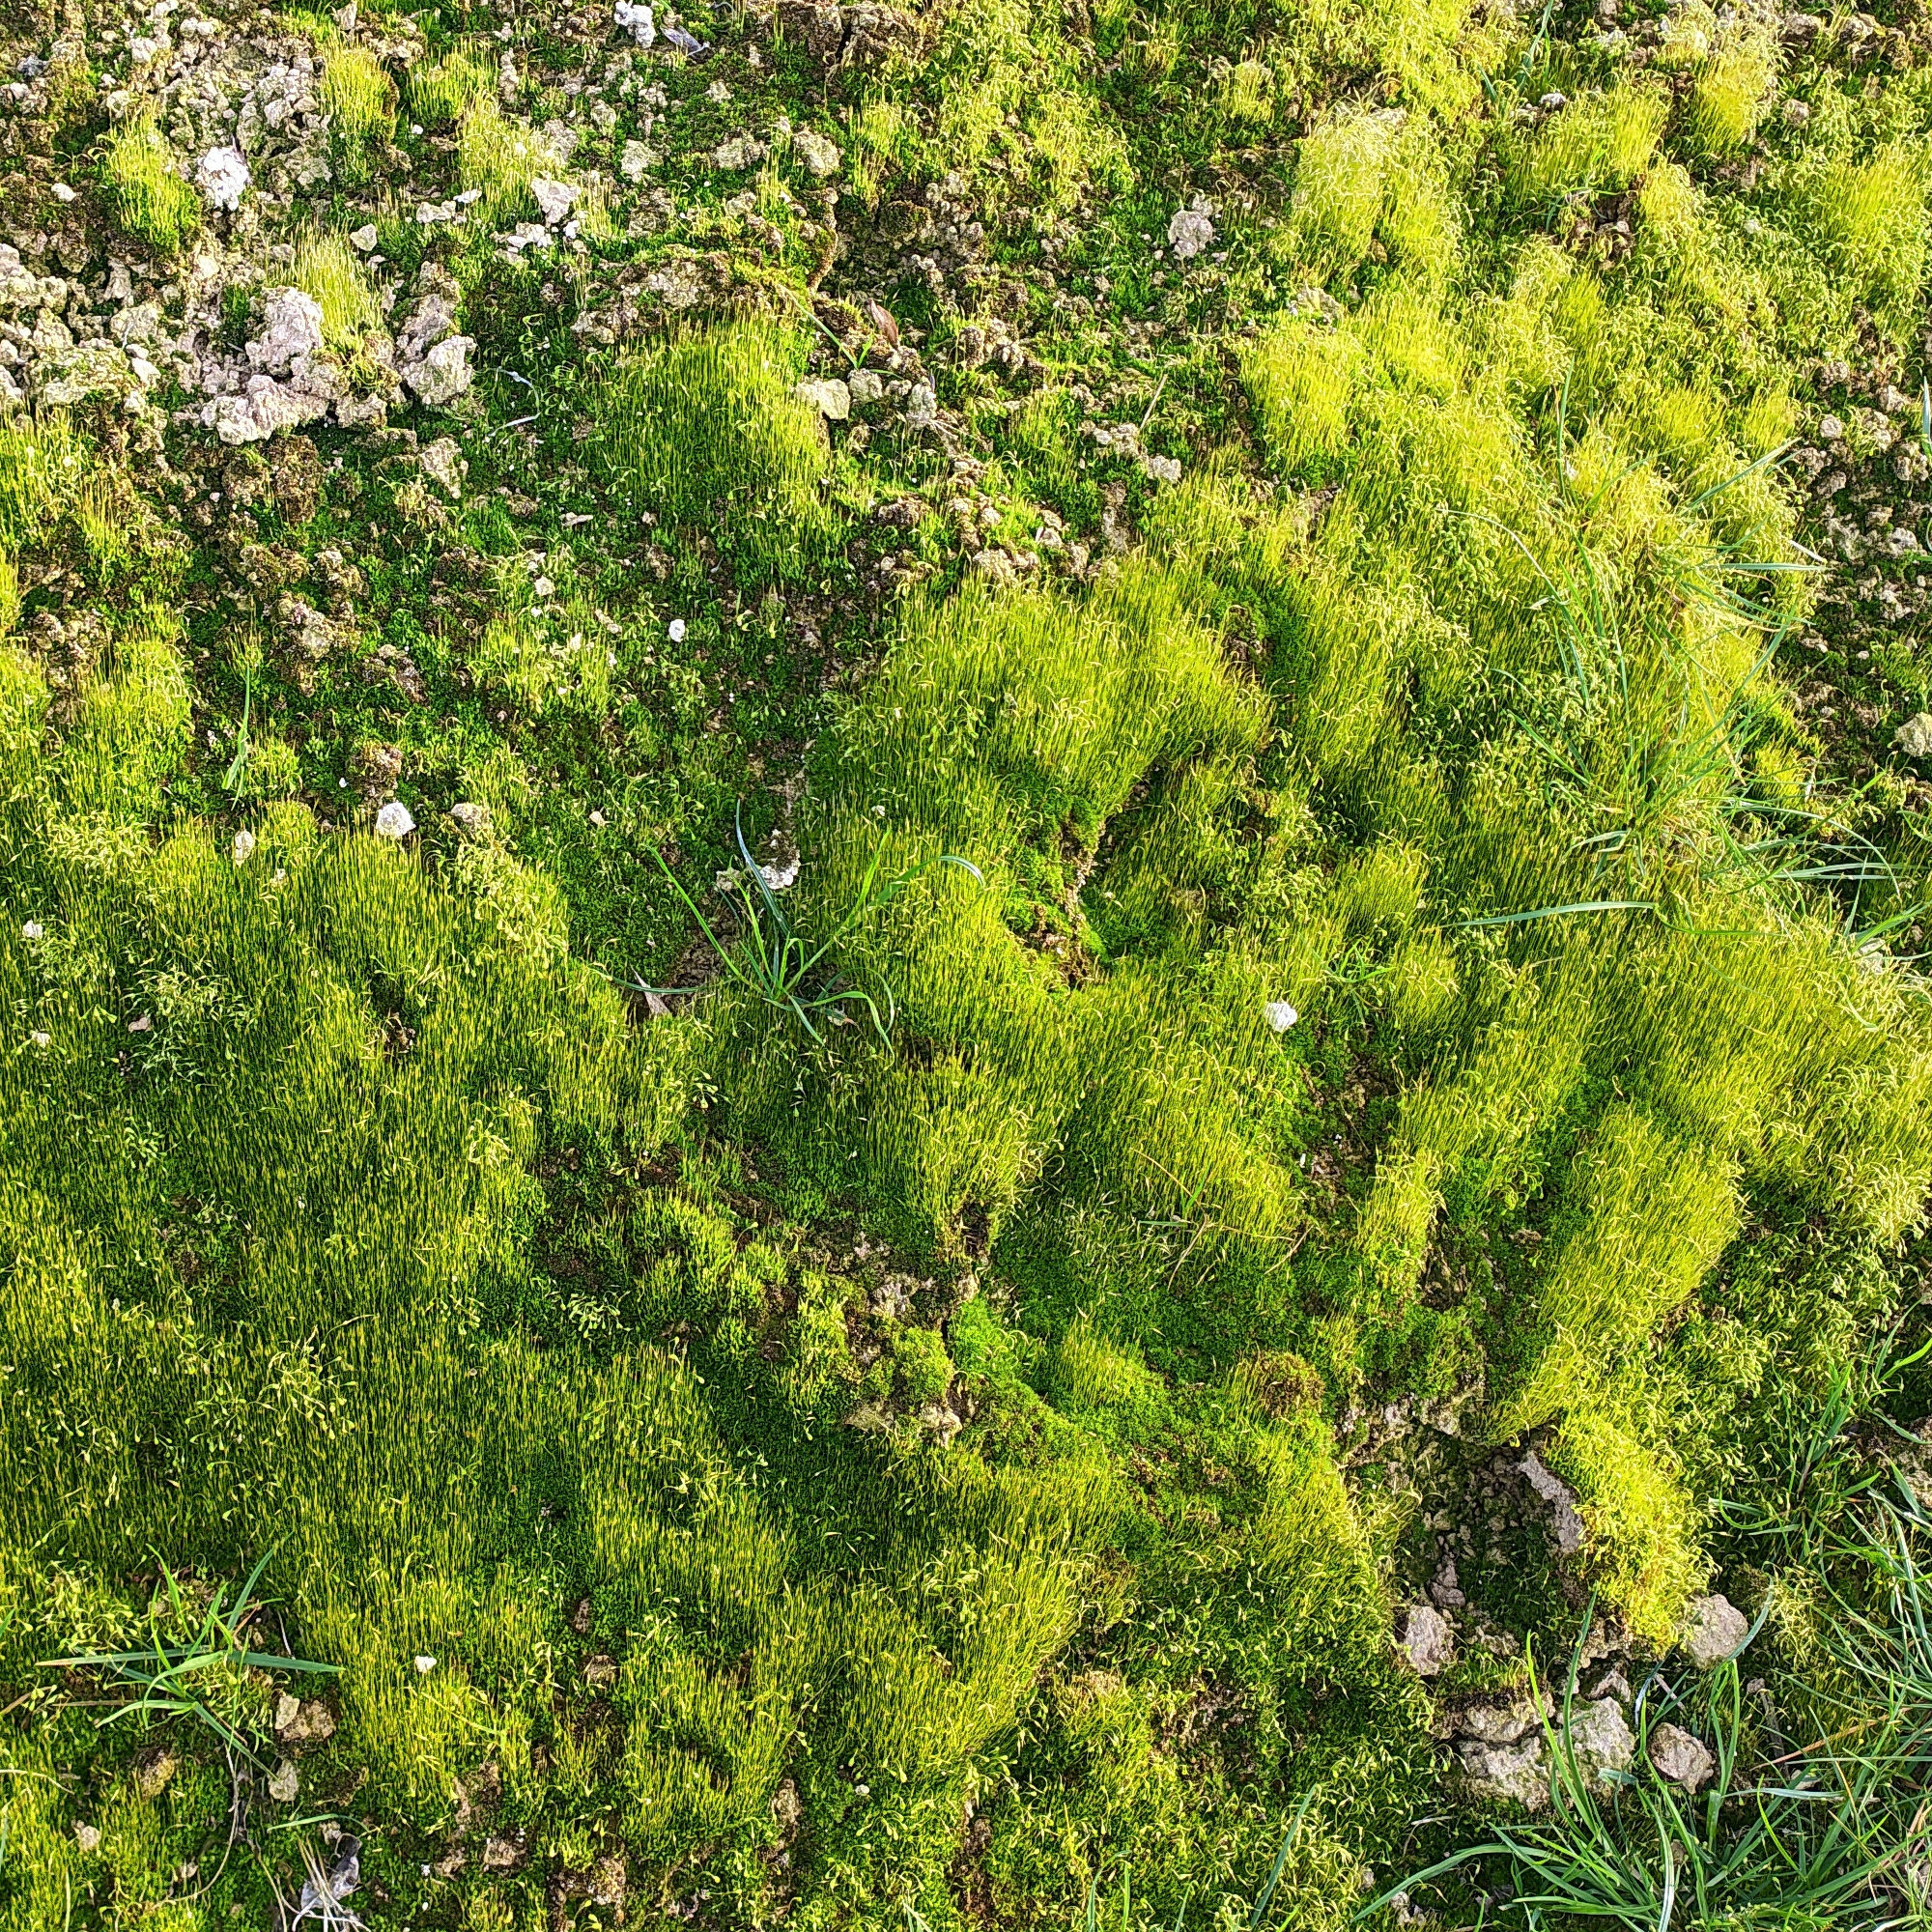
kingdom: Plantae
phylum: Bryophyta
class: Bryopsida
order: Funariales
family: Funariaceae
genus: Funaria
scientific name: Funaria hygrometrica
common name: Common cord moss
